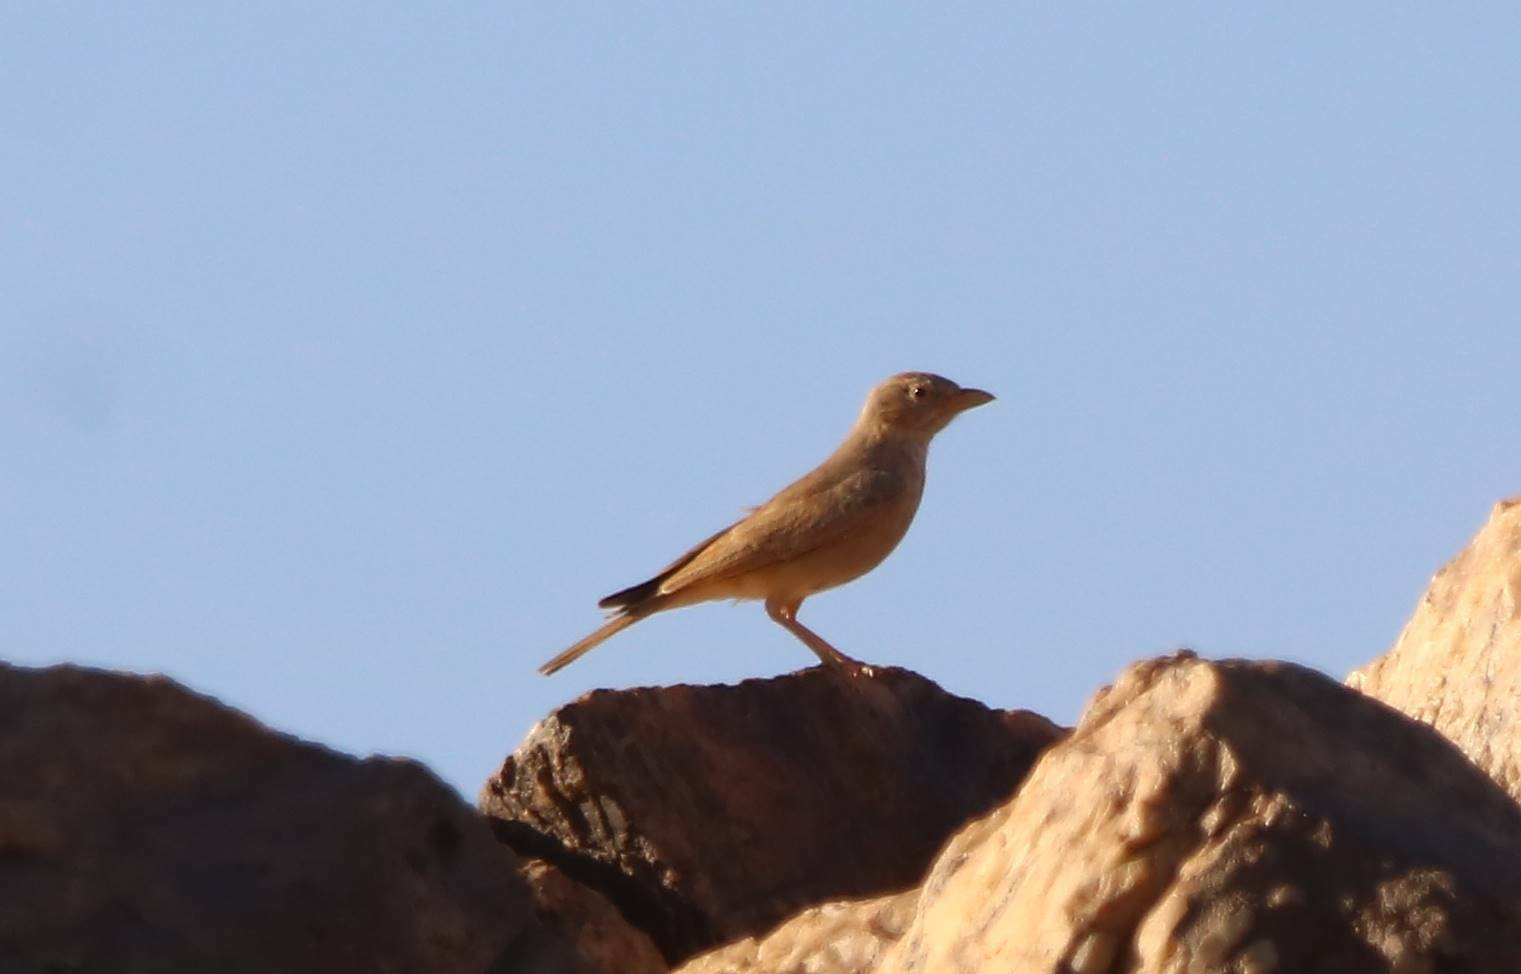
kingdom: Animalia
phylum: Chordata
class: Aves
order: Passeriformes
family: Alaudidae
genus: Ammomanes
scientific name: Ammomanes deserti
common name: Desert lark
